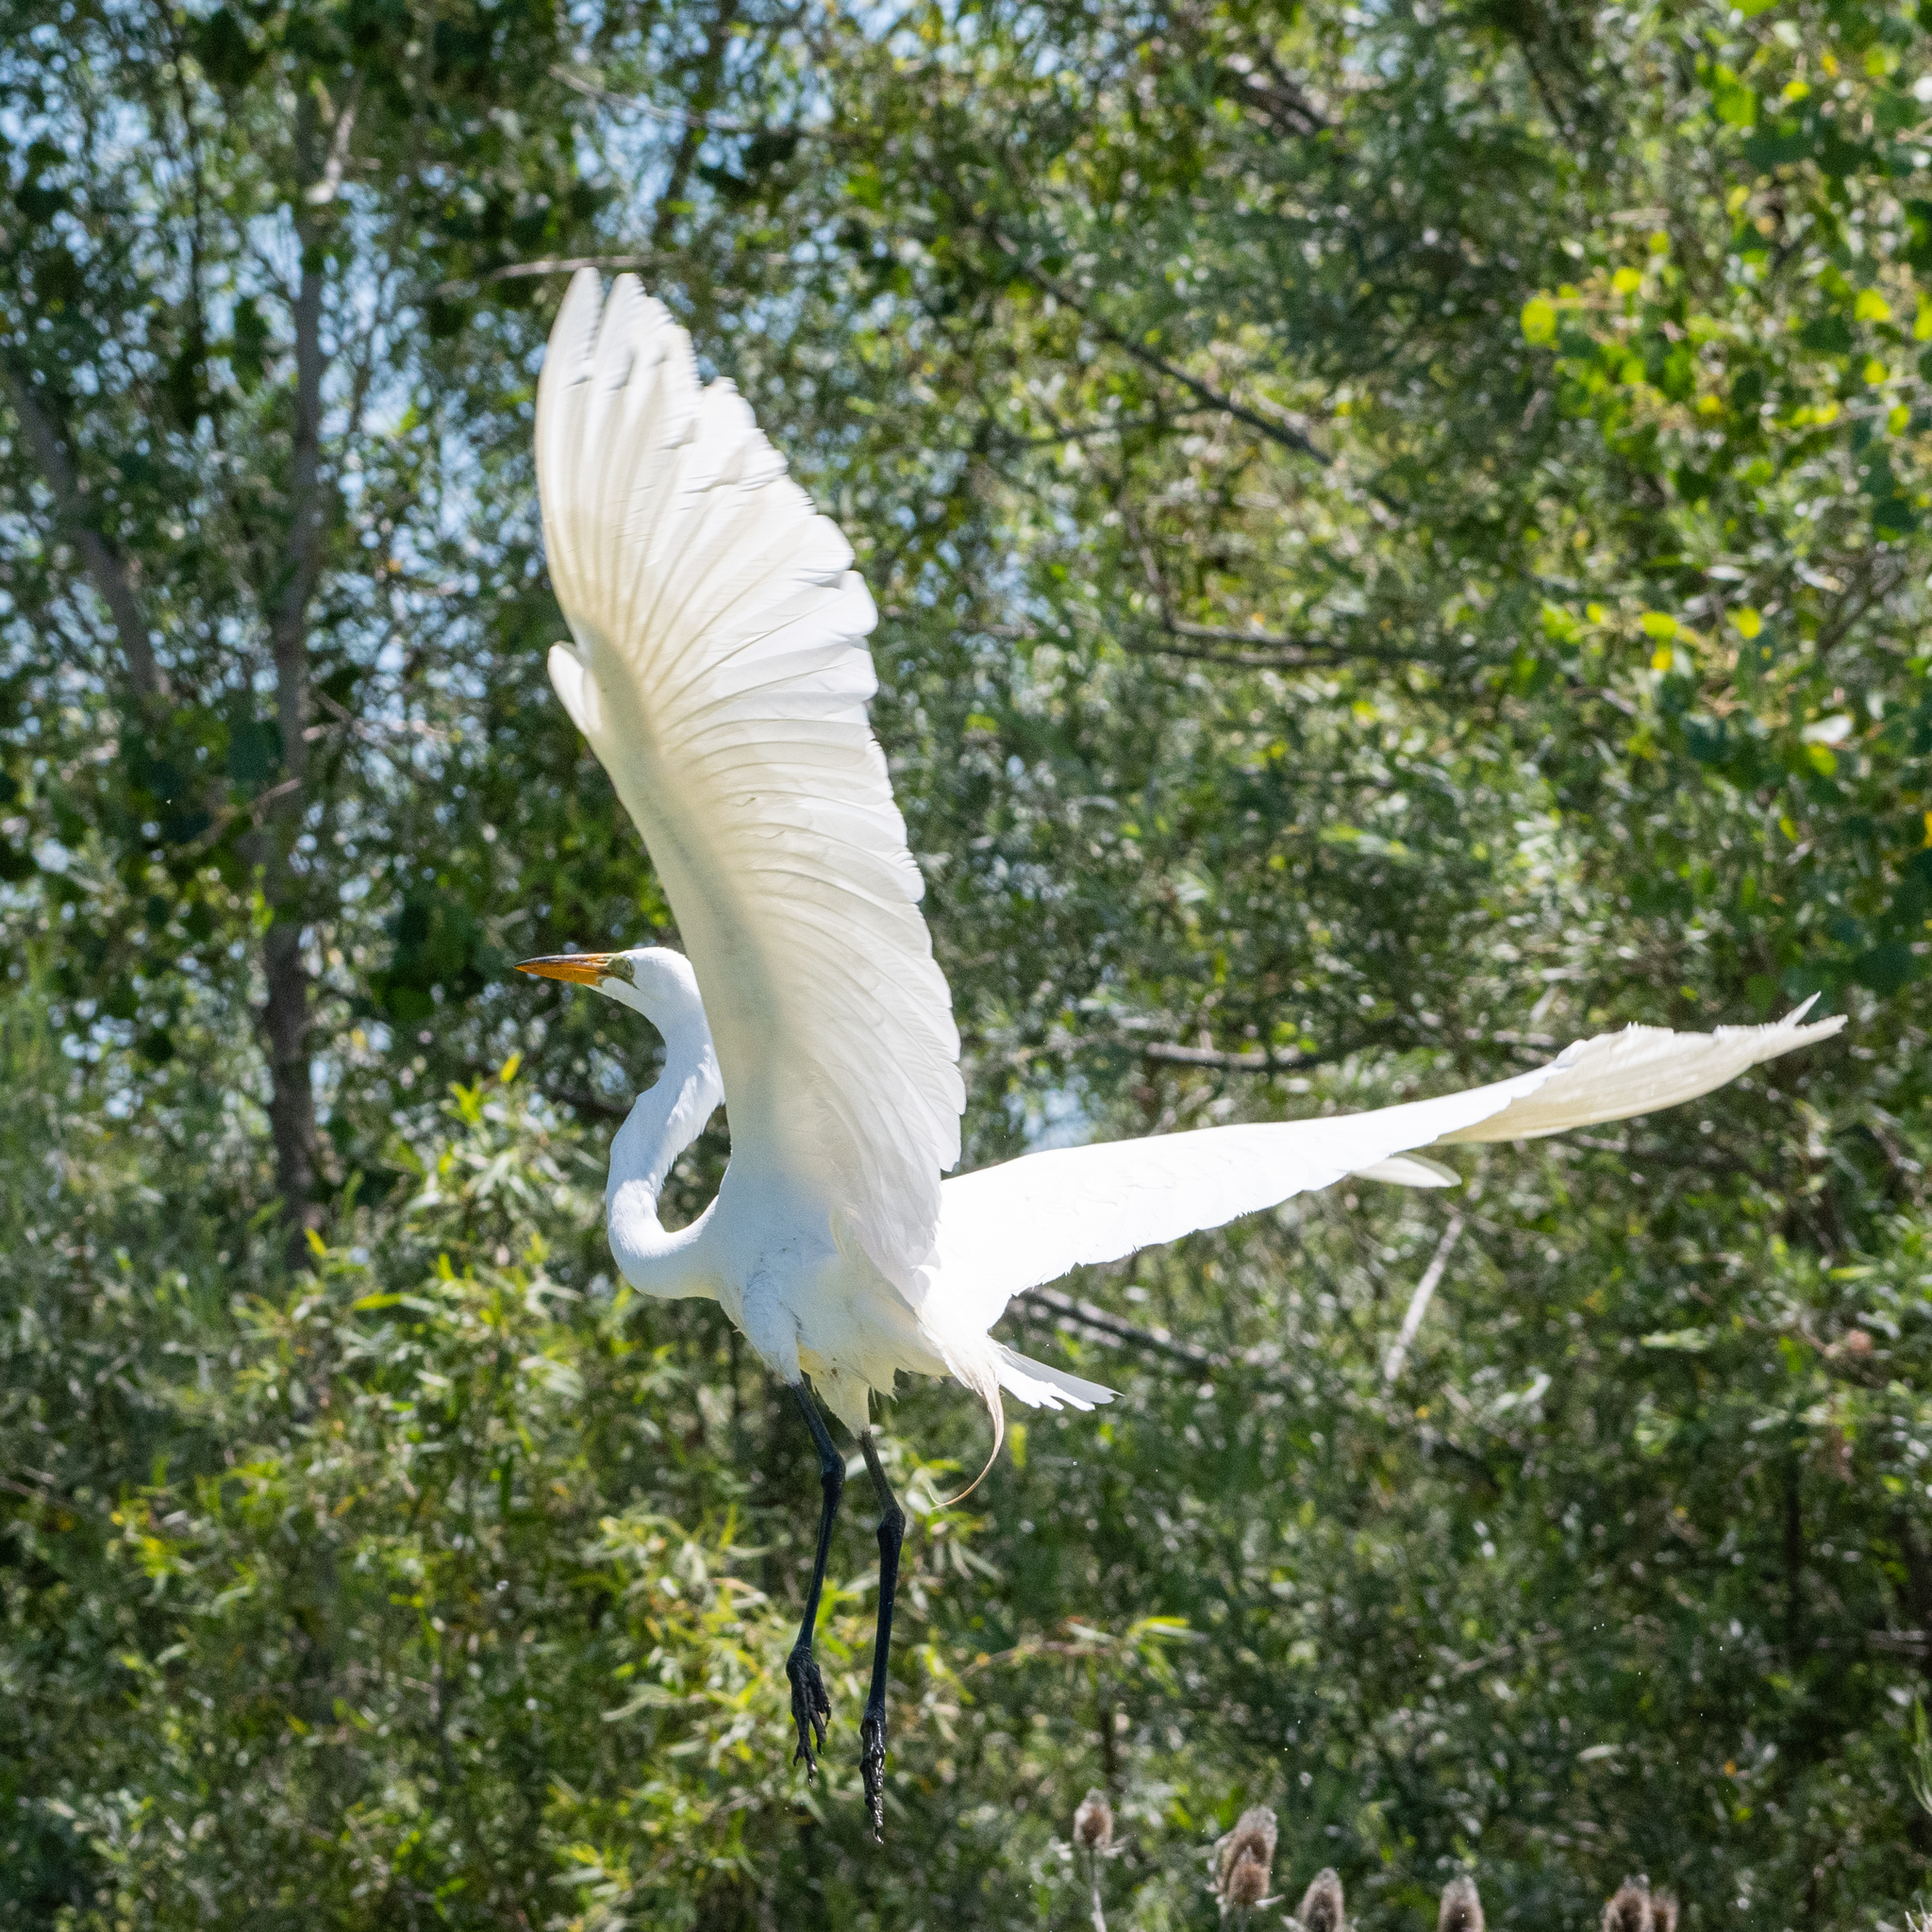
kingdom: Animalia
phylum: Chordata
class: Aves
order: Pelecaniformes
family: Ardeidae
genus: Ardea
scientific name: Ardea alba
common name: Great egret
